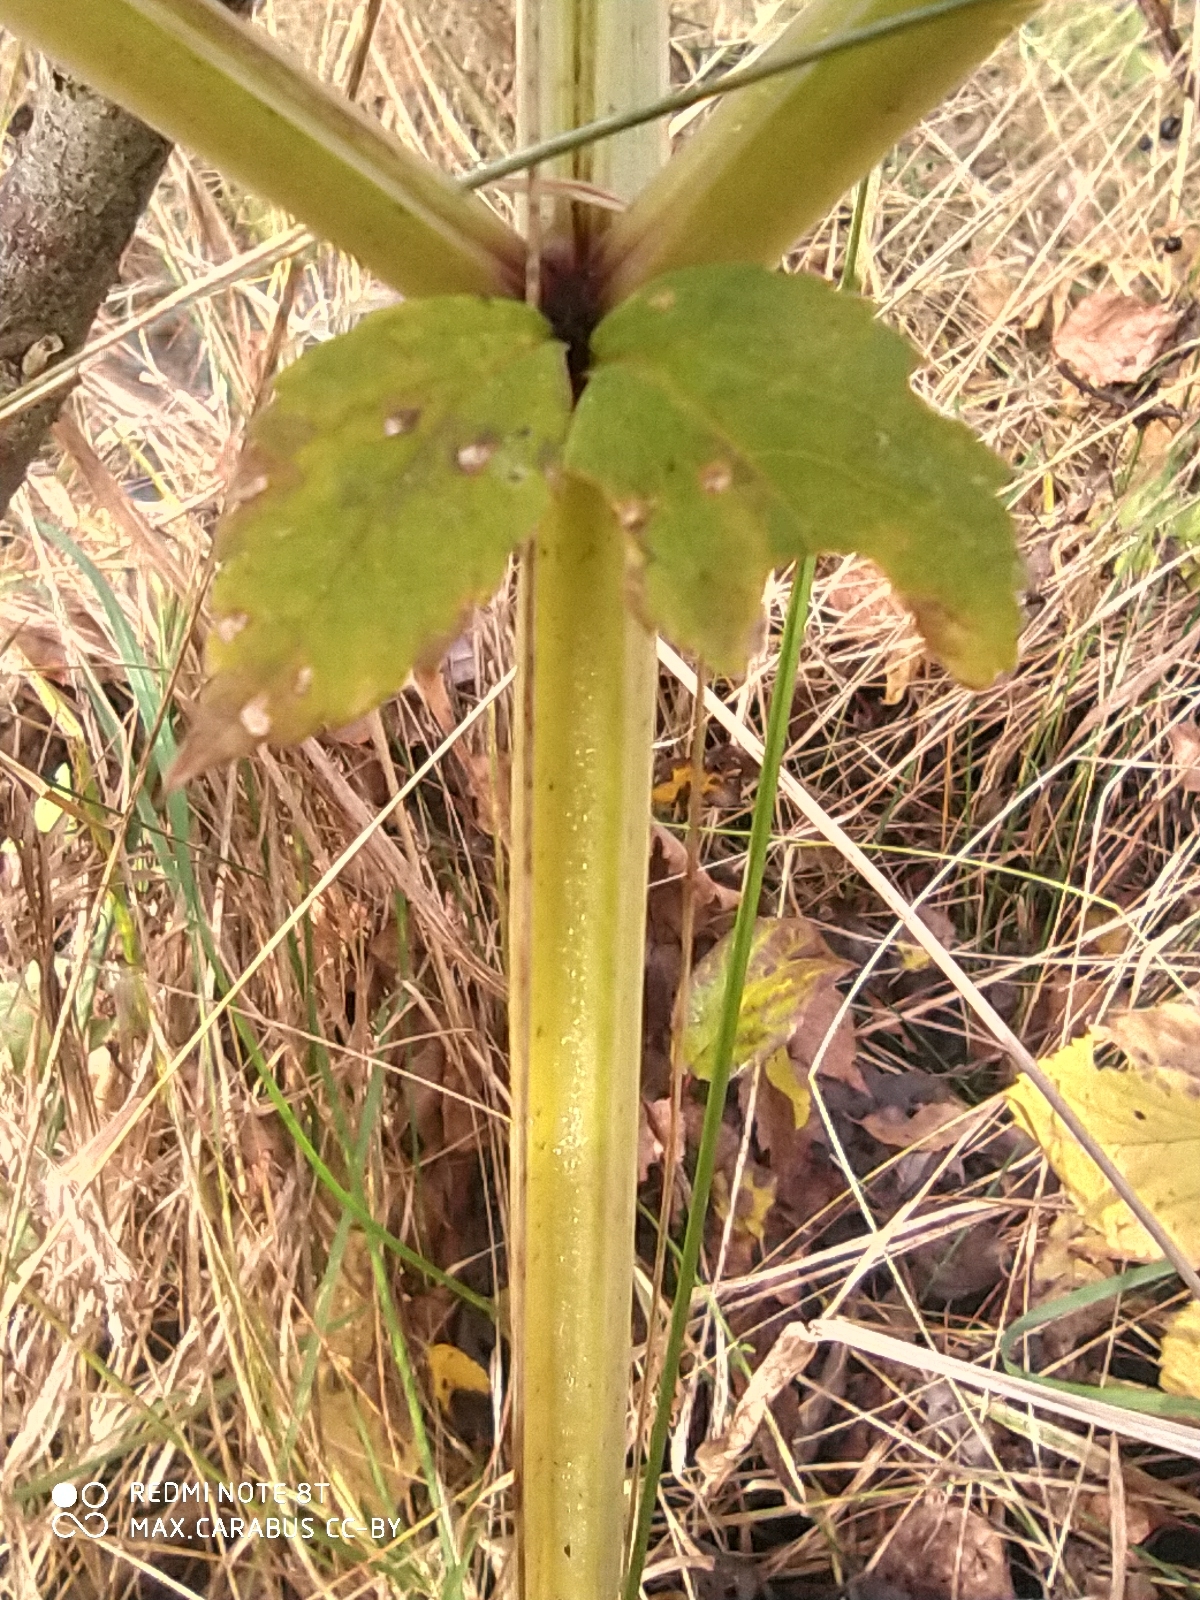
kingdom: Plantae
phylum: Tracheophyta
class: Magnoliopsida
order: Apiales
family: Apiaceae
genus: Angelica
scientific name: Angelica sylvestris
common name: Wild angelica
